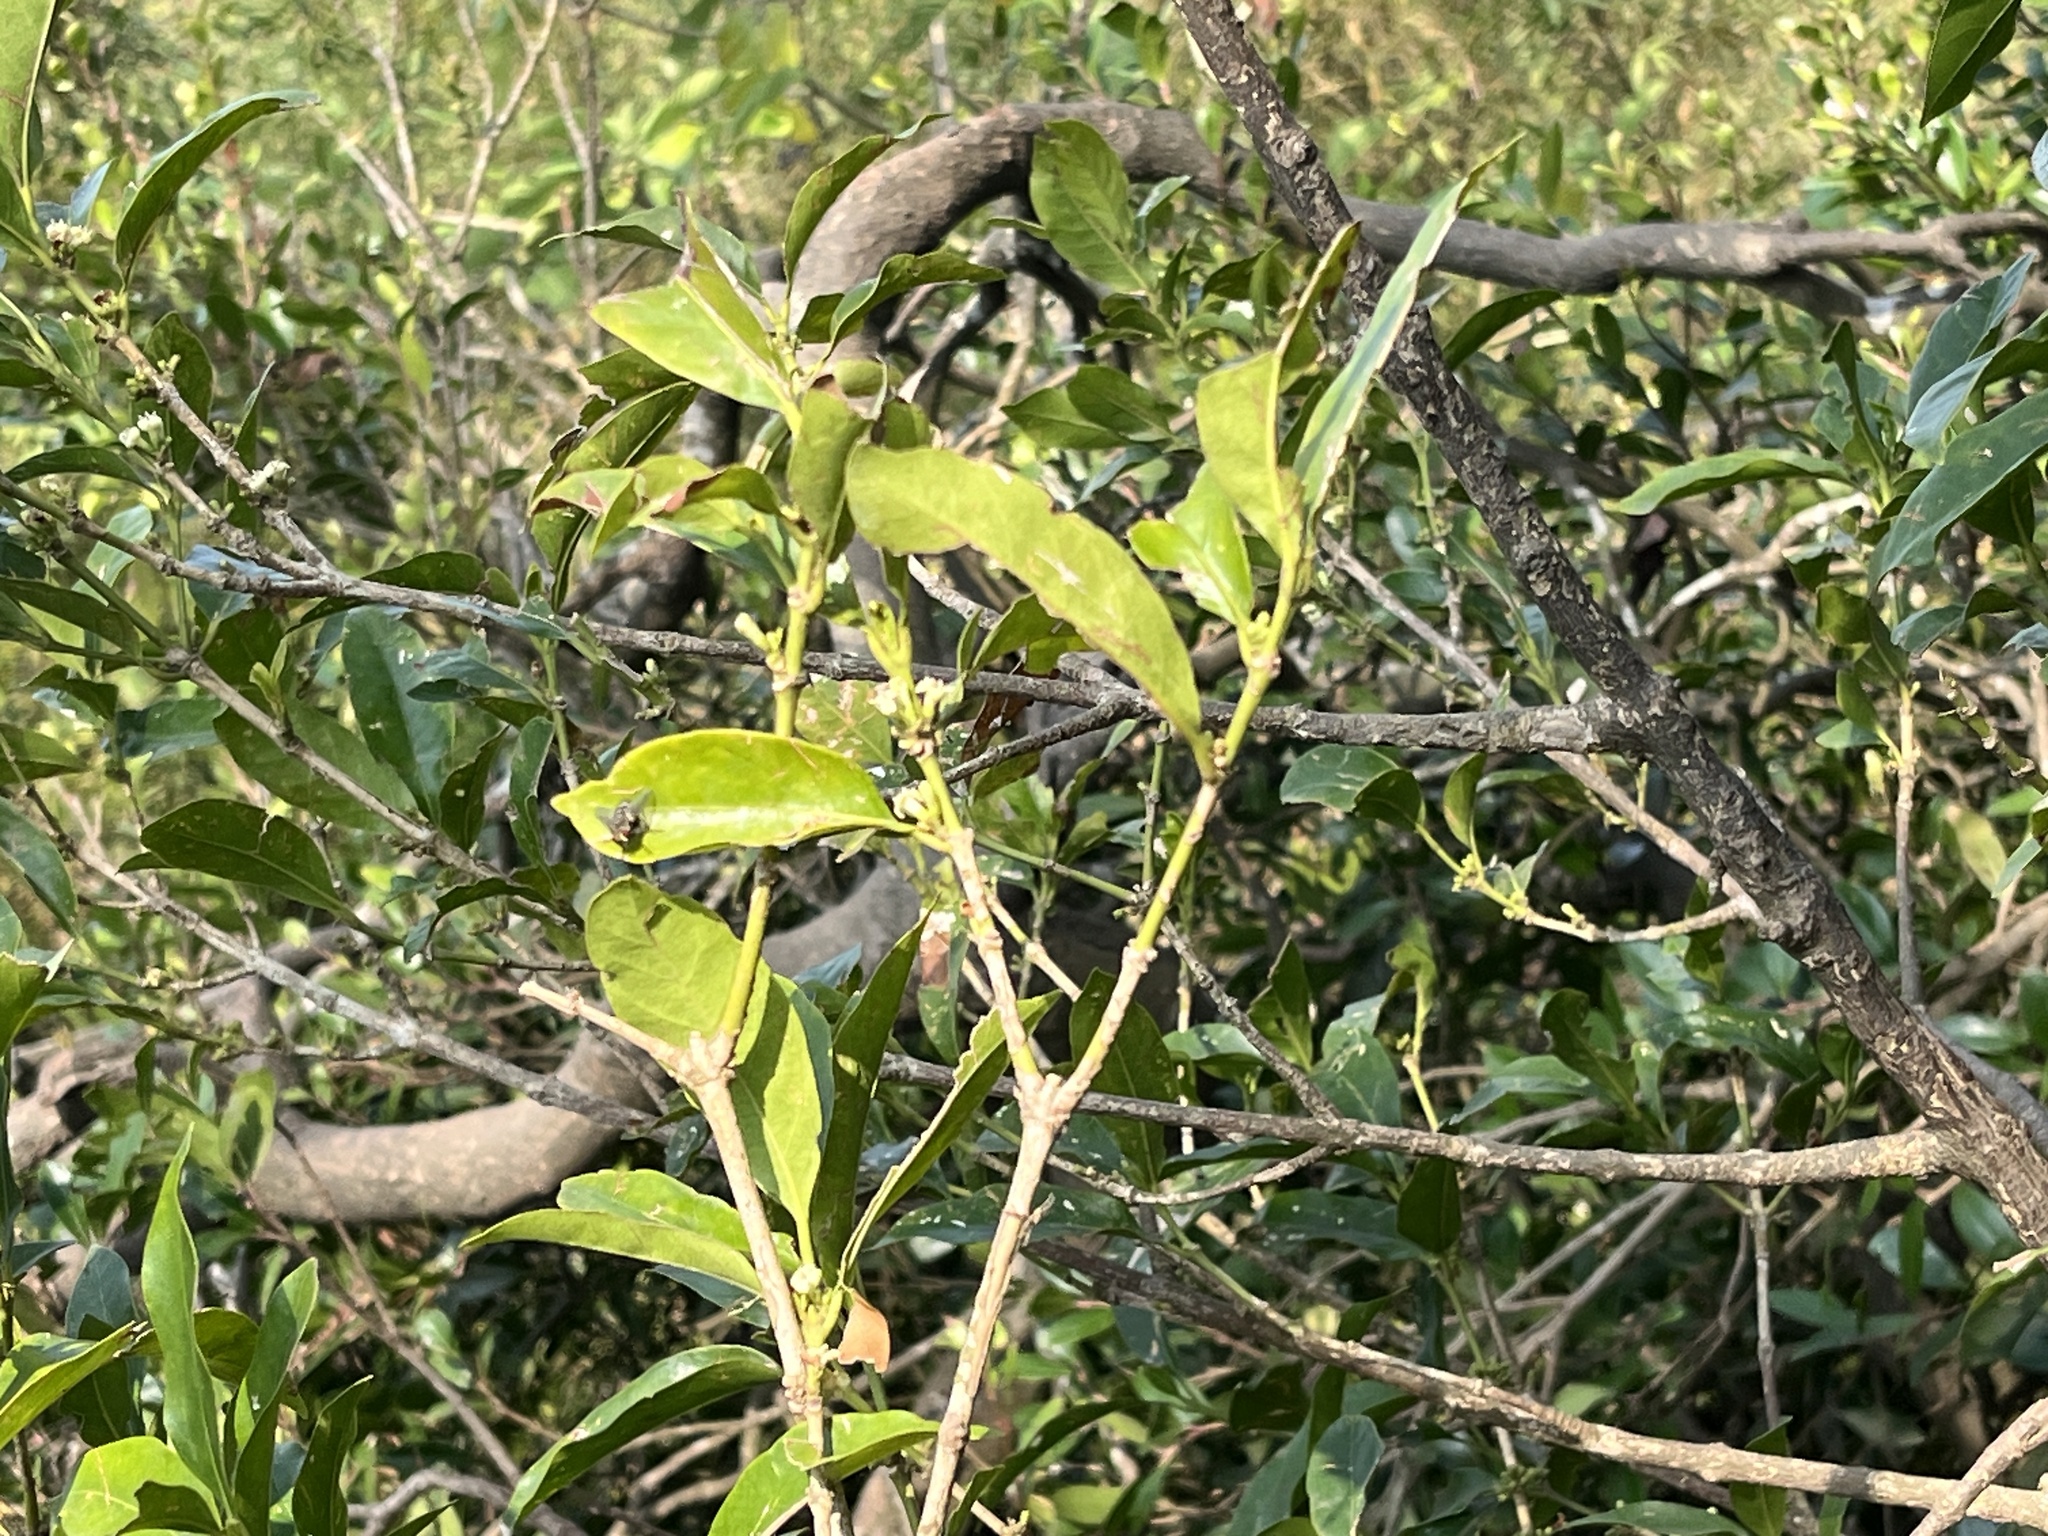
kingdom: Plantae
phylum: Tracheophyta
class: Magnoliopsida
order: Gentianales
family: Rubiaceae
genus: Diplospora
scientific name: Diplospora dubia
